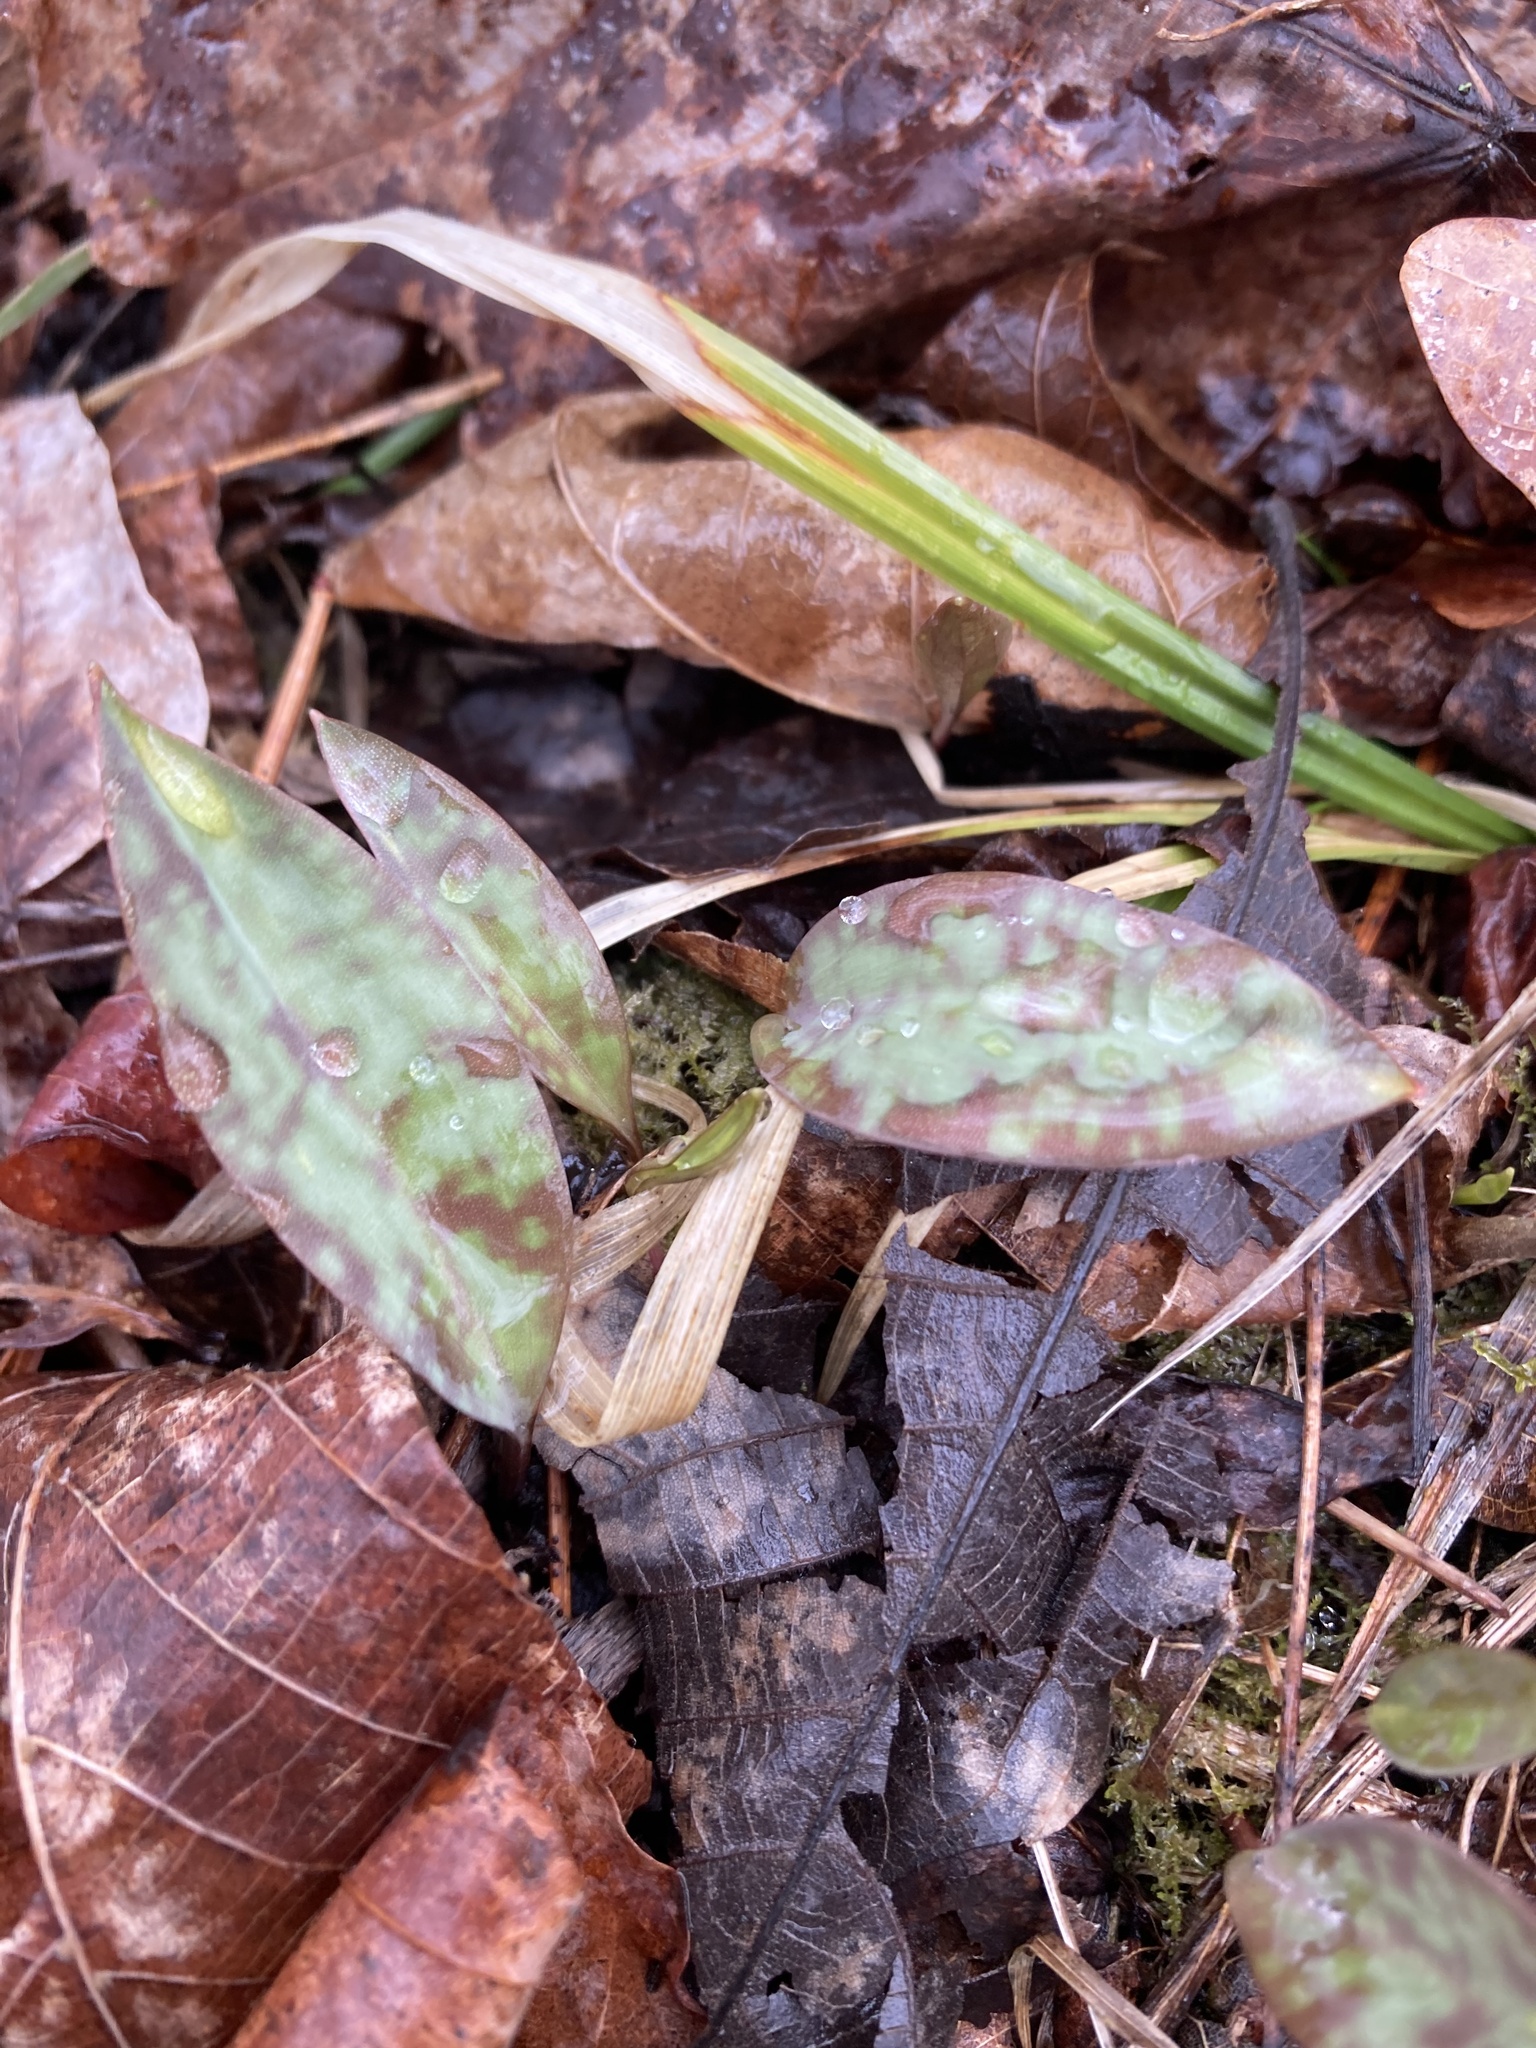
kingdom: Plantae
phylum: Tracheophyta
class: Liliopsida
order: Liliales
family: Liliaceae
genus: Erythronium
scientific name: Erythronium americanum
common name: Yellow adder's-tongue
